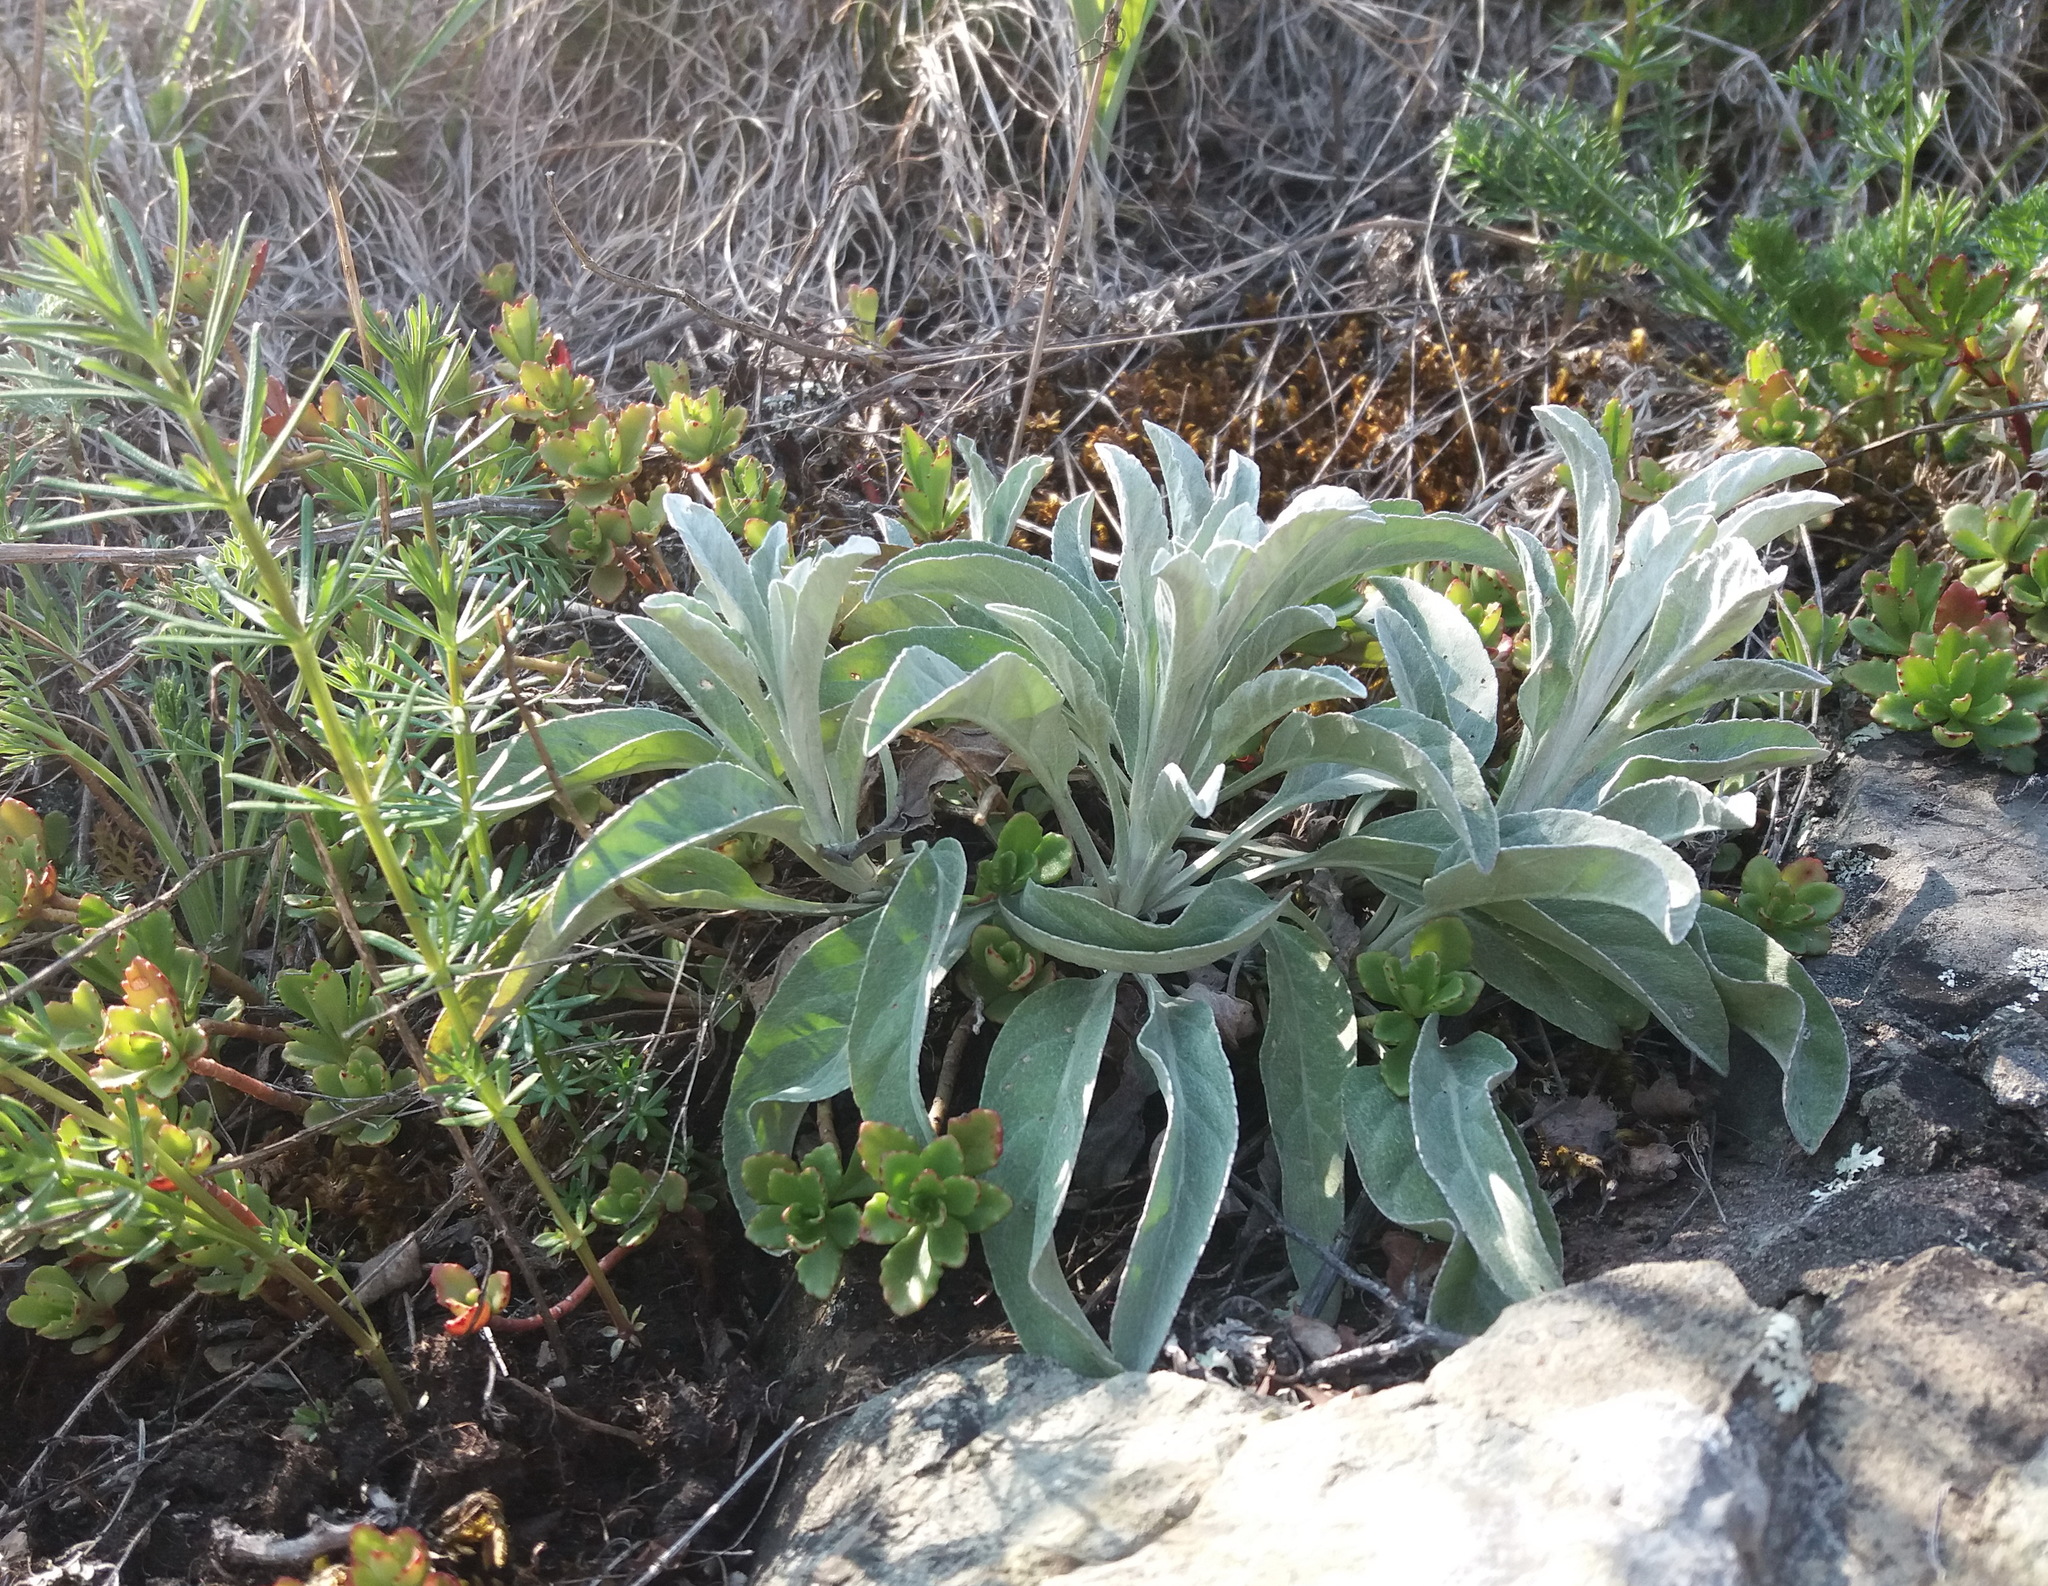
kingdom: Plantae
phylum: Tracheophyta
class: Magnoliopsida
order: Lamiales
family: Plantaginaceae
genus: Veronica
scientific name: Veronica incana
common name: Silver speedwell
